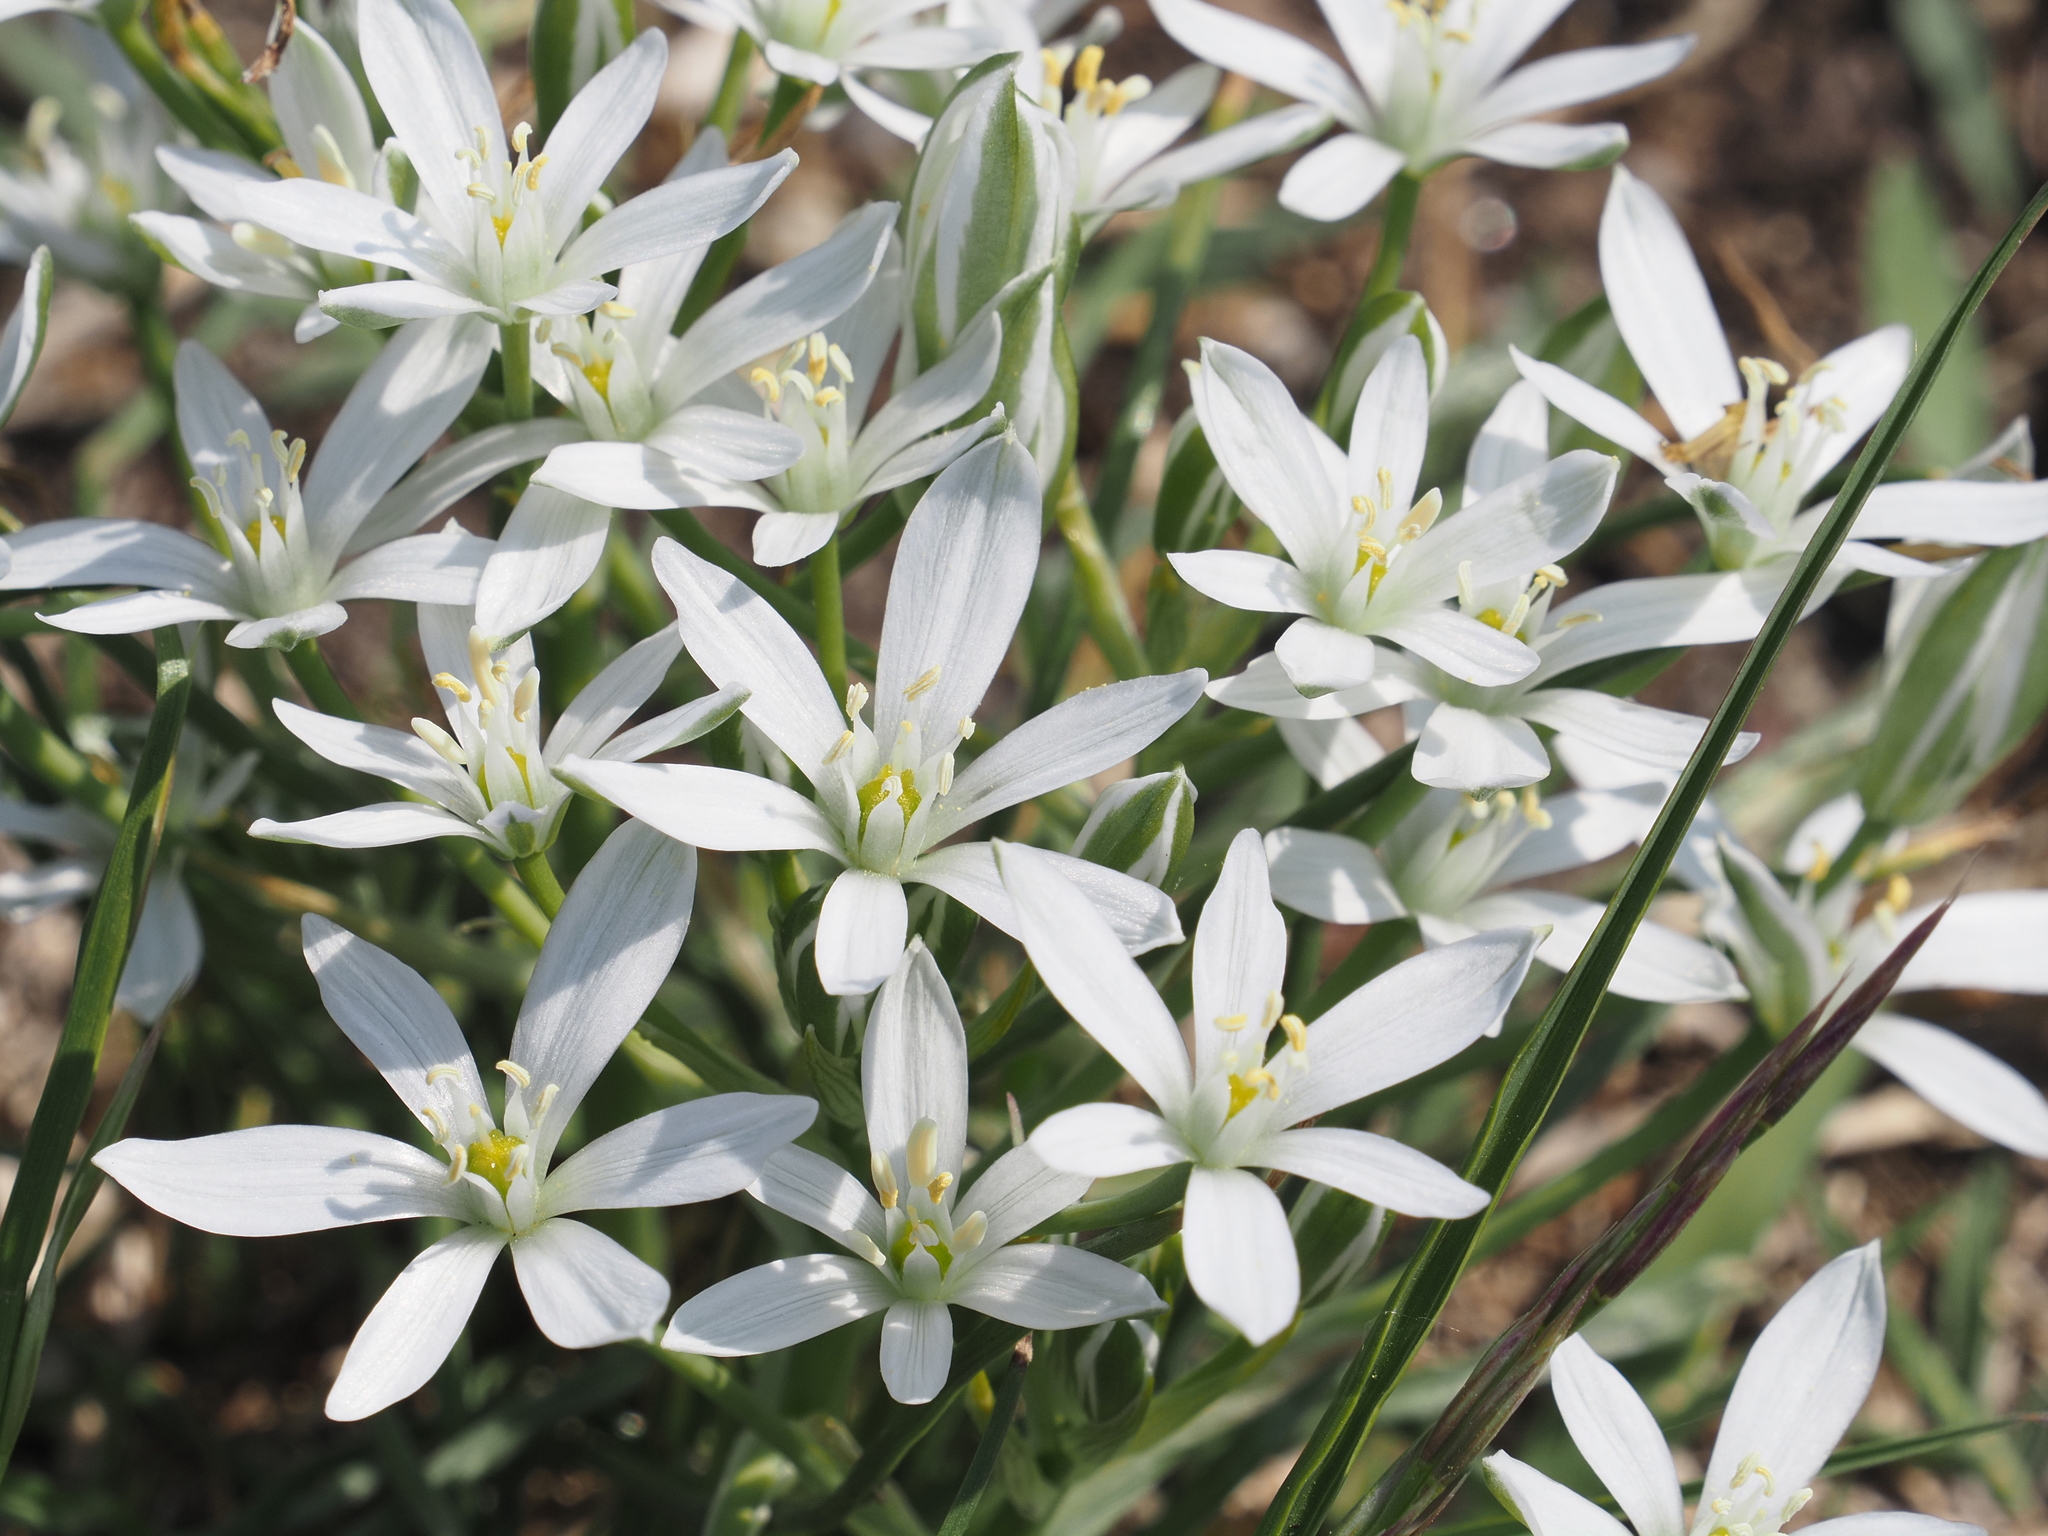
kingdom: Plantae
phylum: Tracheophyta
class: Liliopsida
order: Asparagales
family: Asparagaceae
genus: Ornithogalum
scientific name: Ornithogalum orthophyllum
